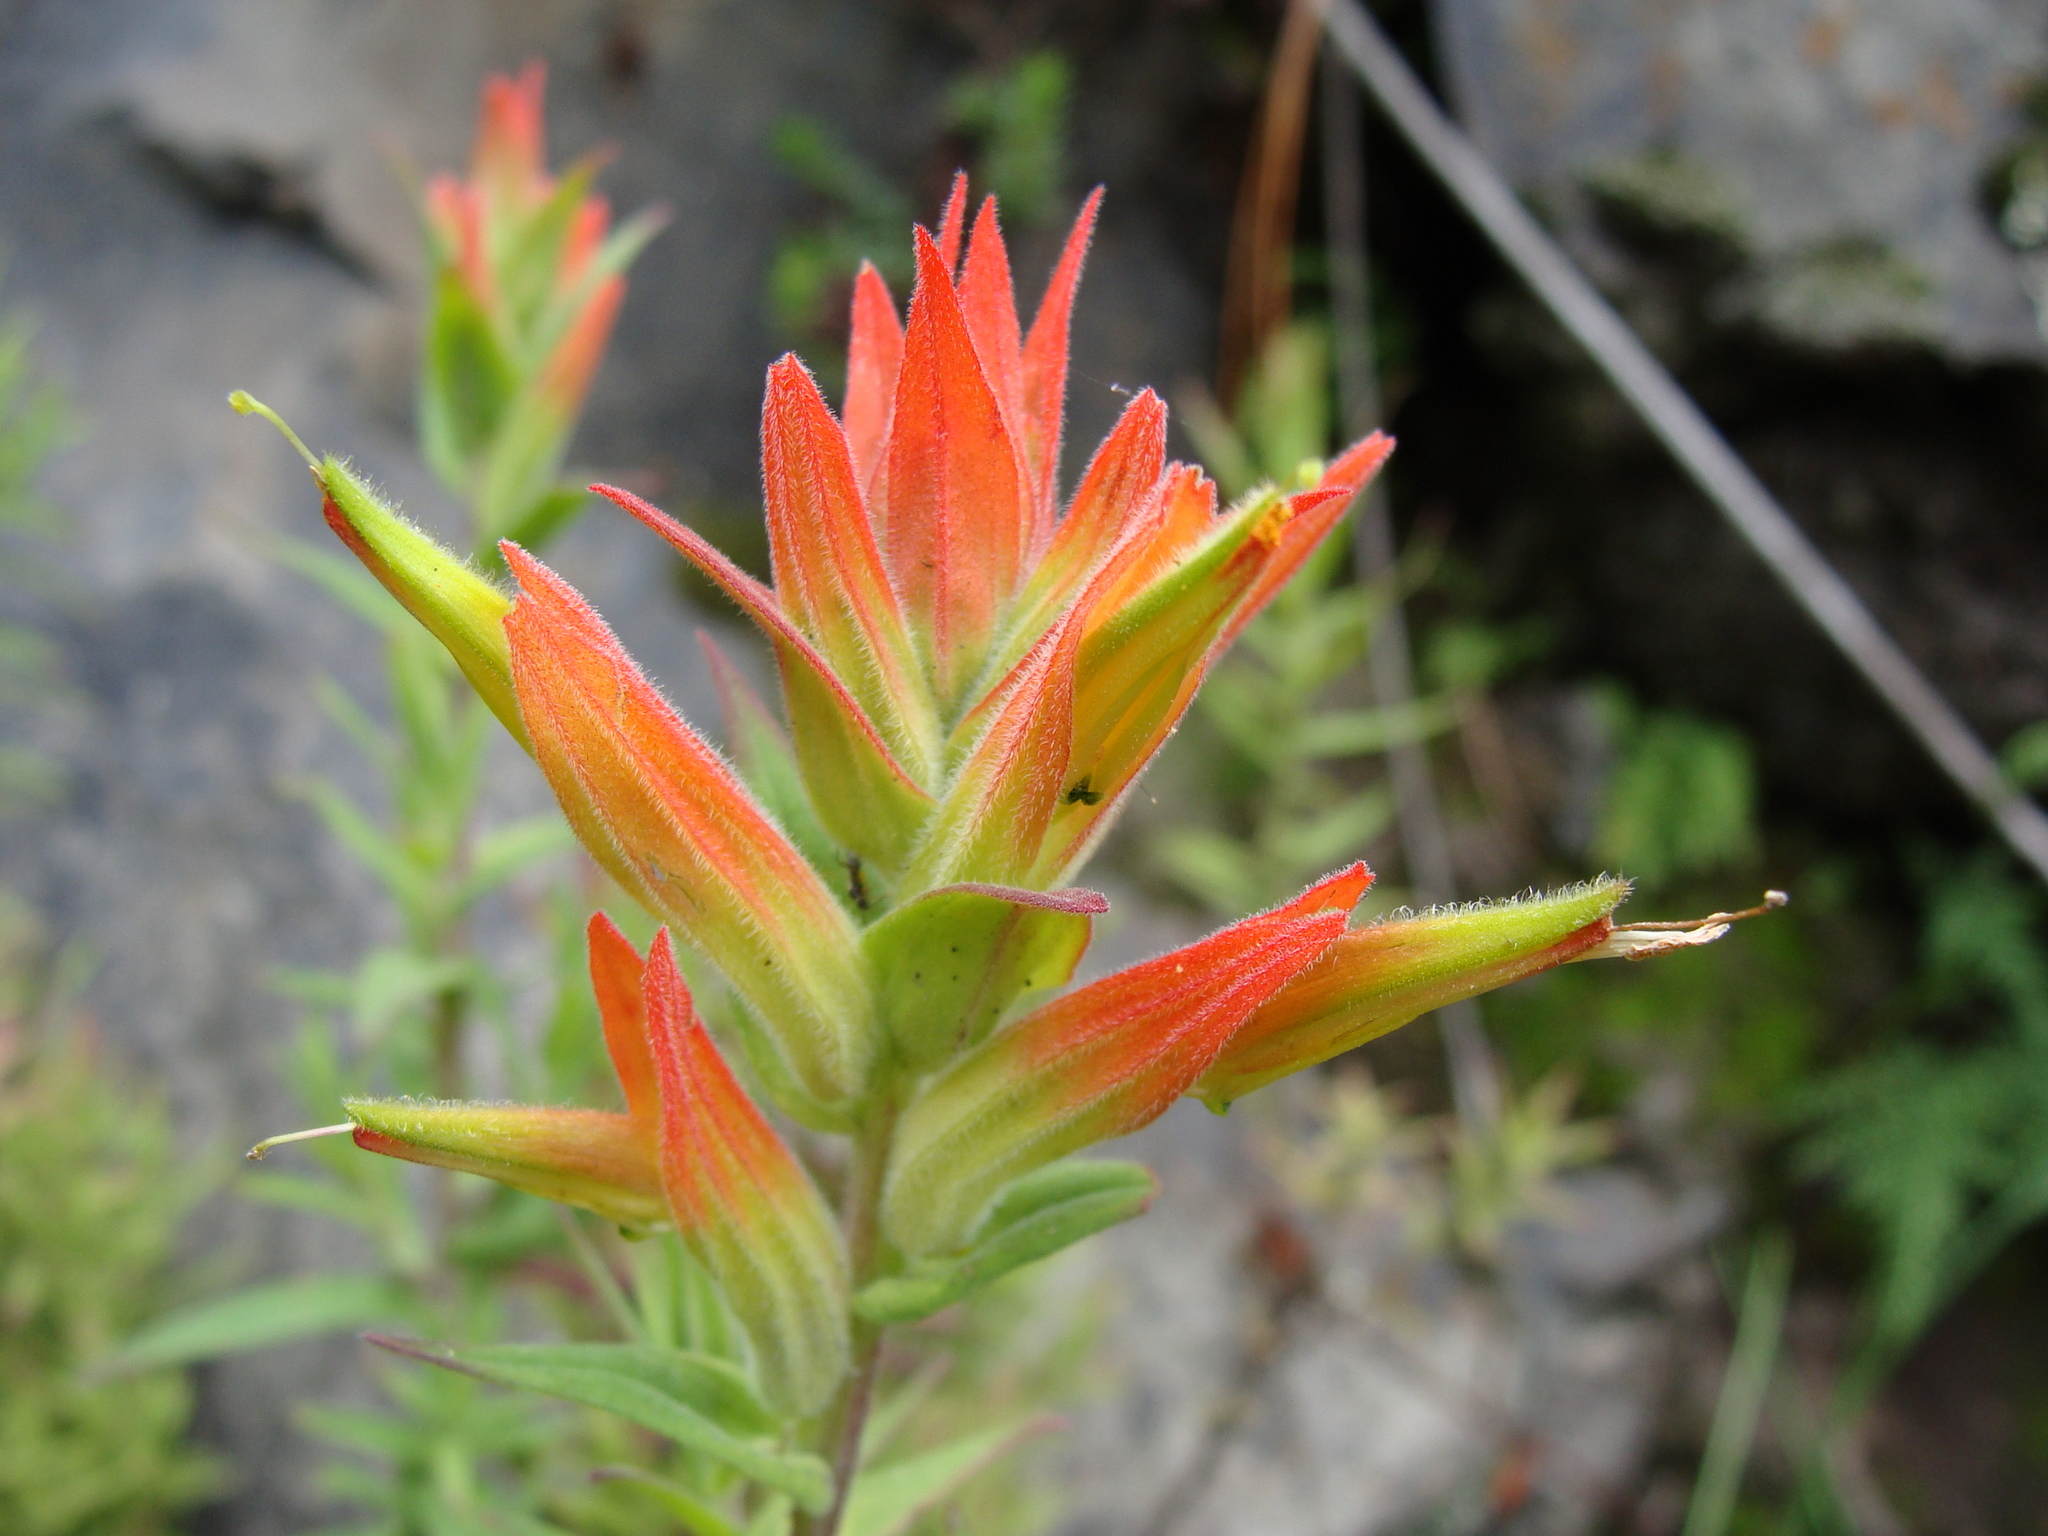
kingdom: Plantae
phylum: Tracheophyta
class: Magnoliopsida
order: Lamiales
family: Orobanchaceae
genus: Castilleja
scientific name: Castilleja tenuiflora
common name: Santa catalina indian paintbrush
